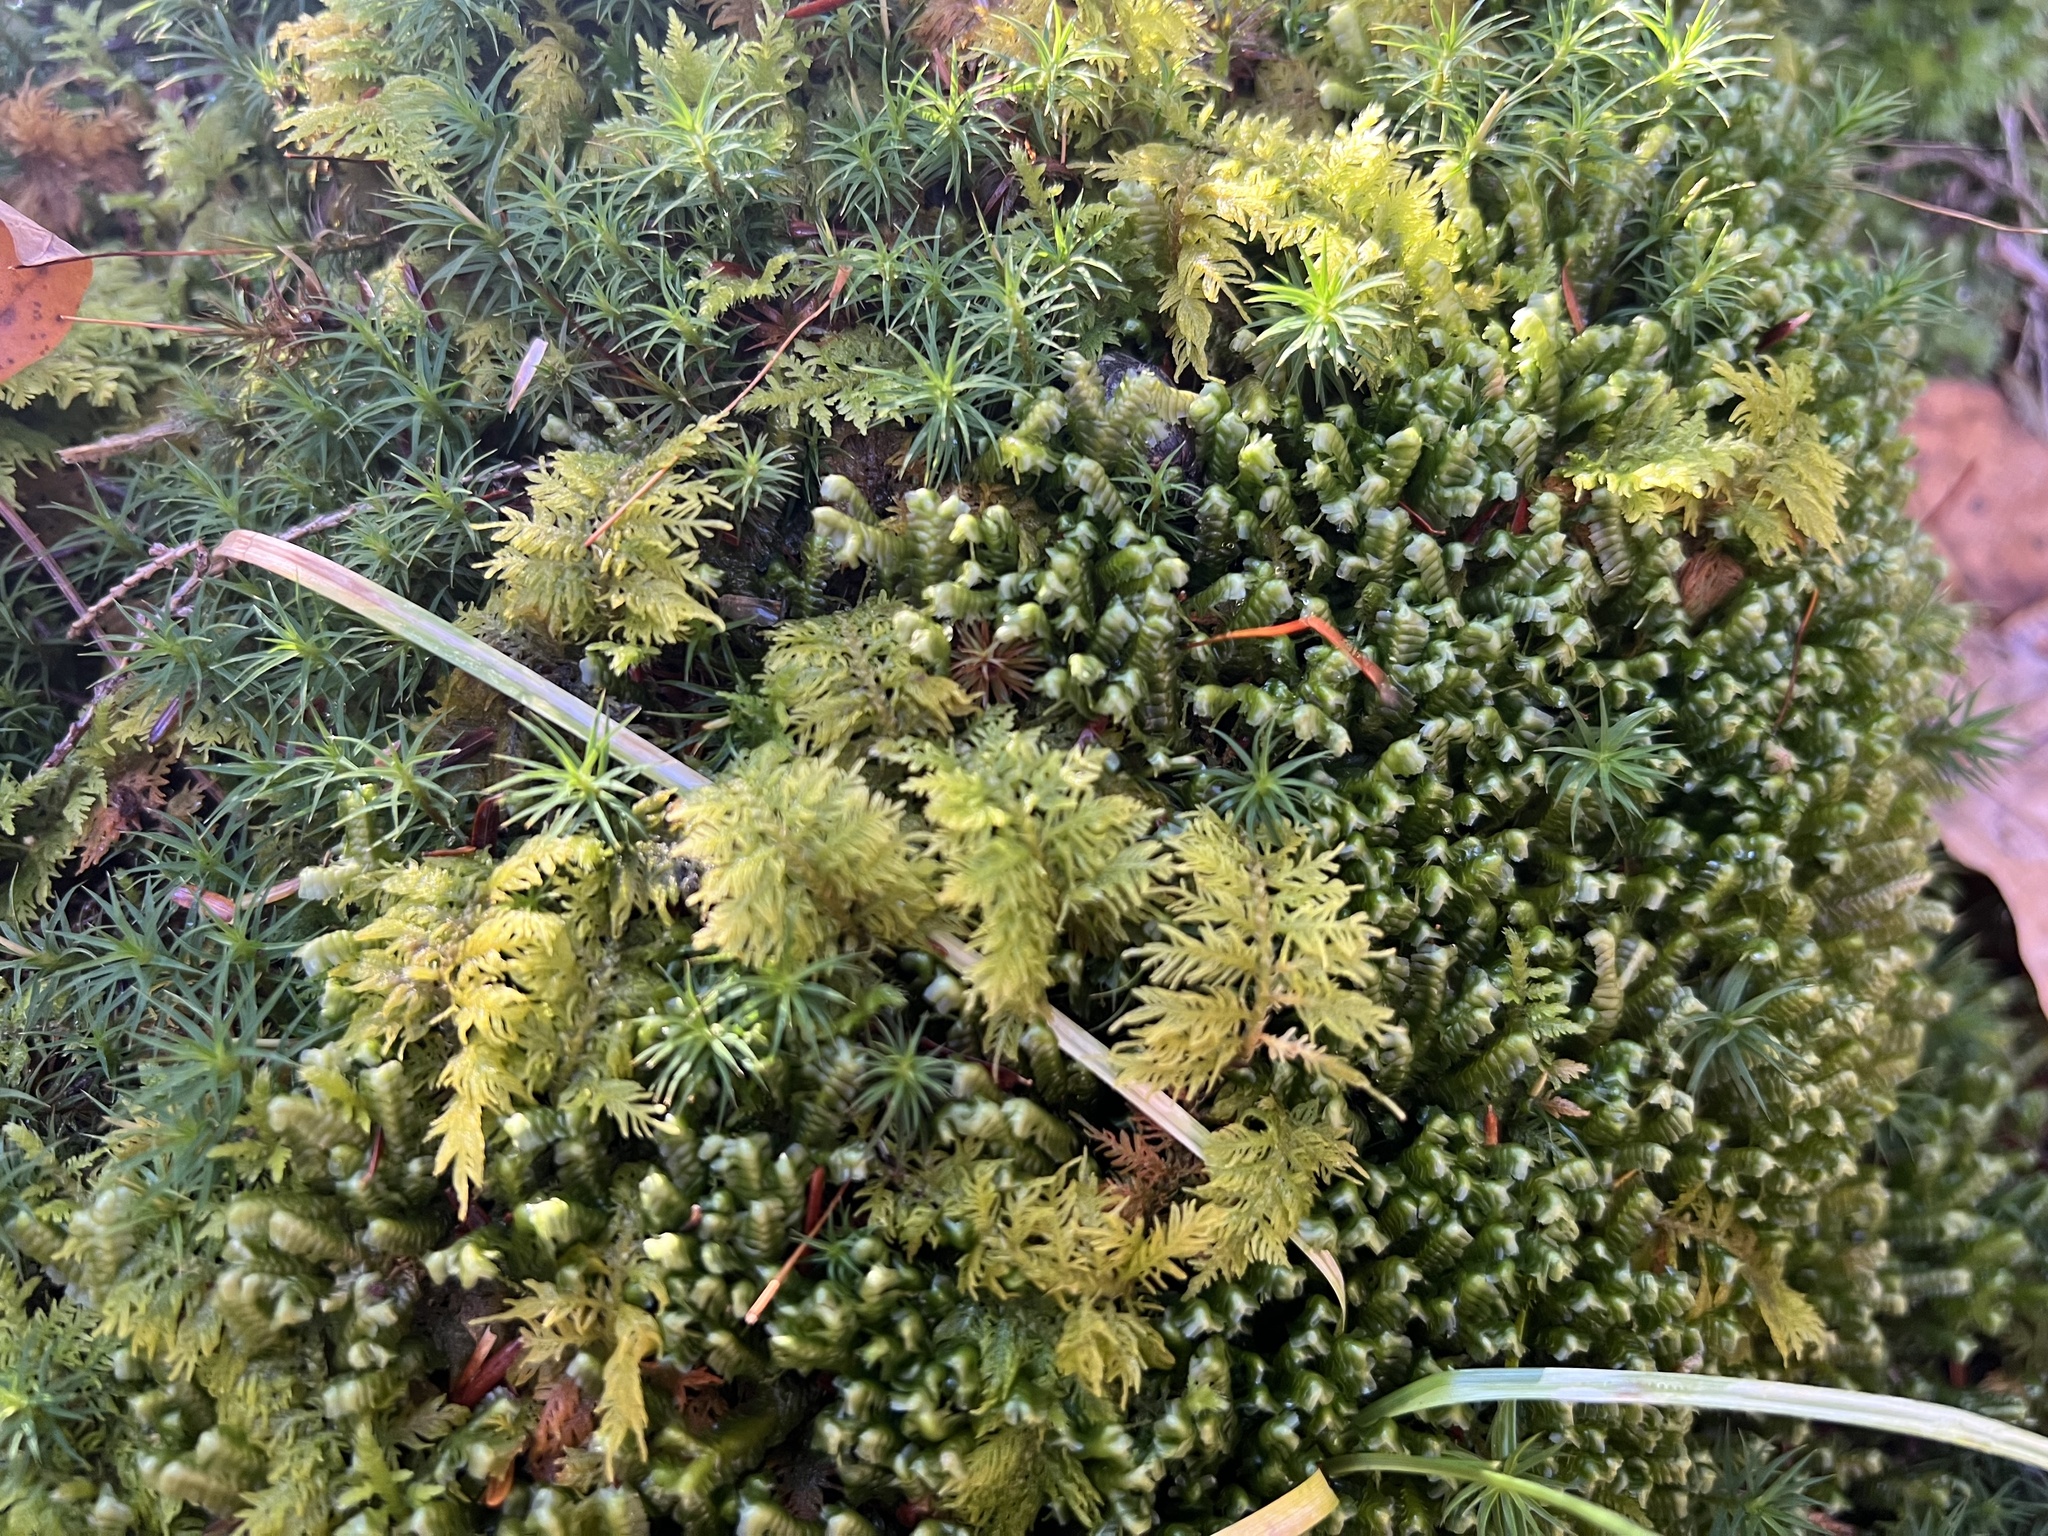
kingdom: Plantae
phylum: Marchantiophyta
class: Jungermanniopsida
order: Jungermanniales
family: Lepidoziaceae
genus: Bazzania
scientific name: Bazzania trilobata
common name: Three-lobed whipwort
